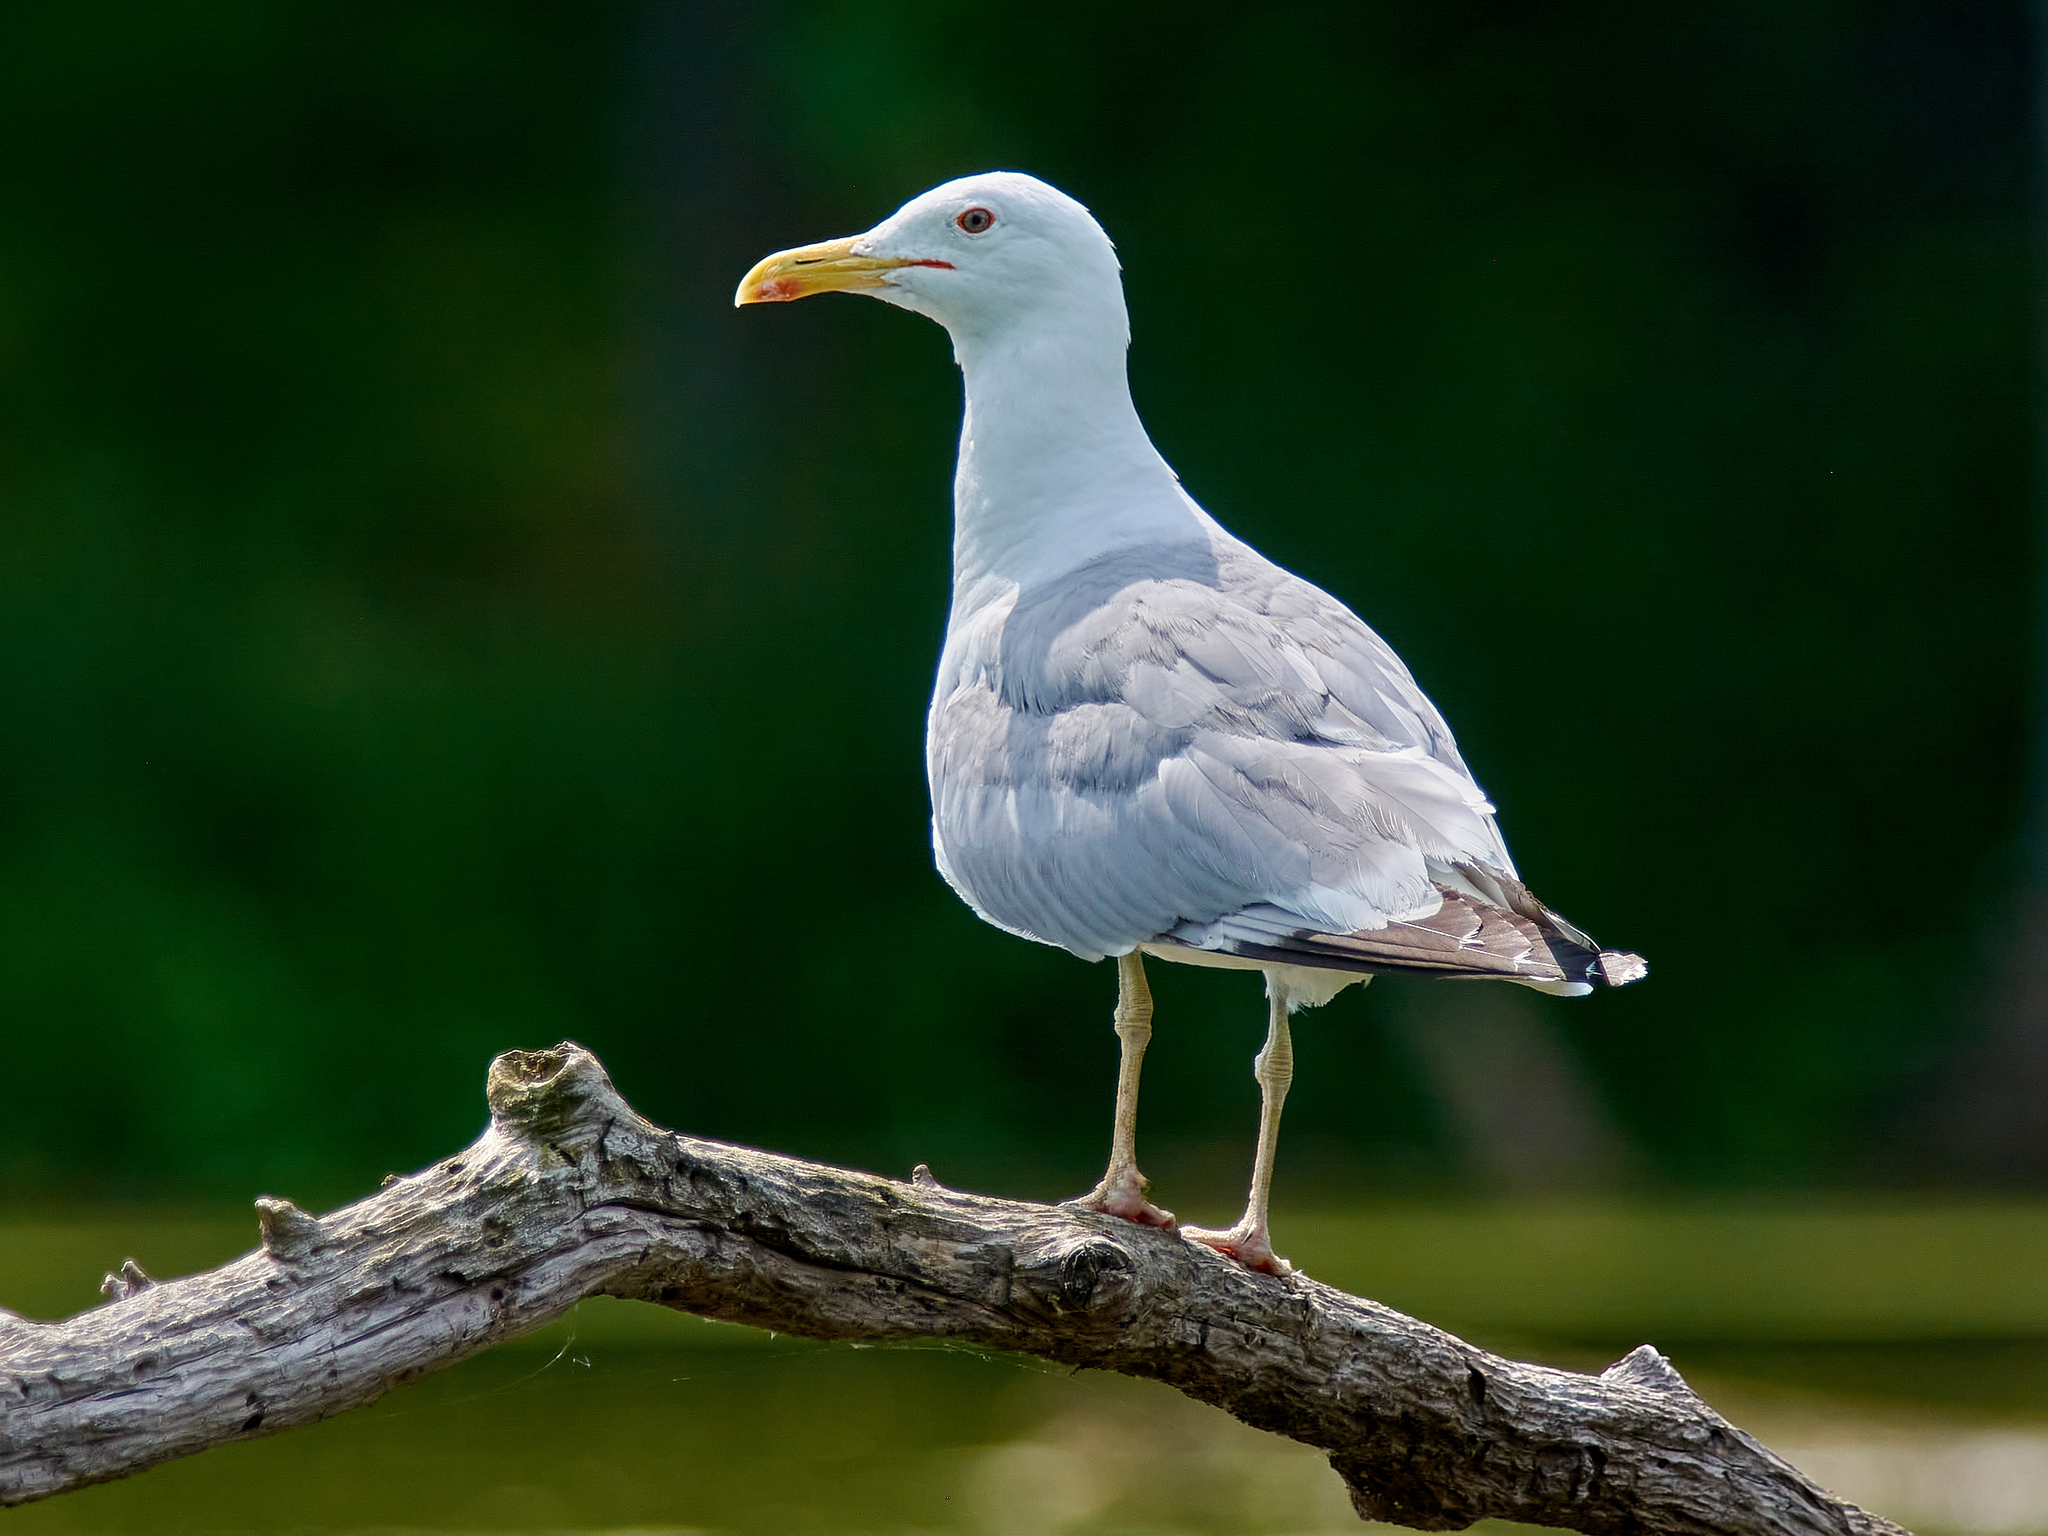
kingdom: Animalia
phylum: Chordata
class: Aves
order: Charadriiformes
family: Laridae
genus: Larus
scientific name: Larus cachinnans
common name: Caspian gull
